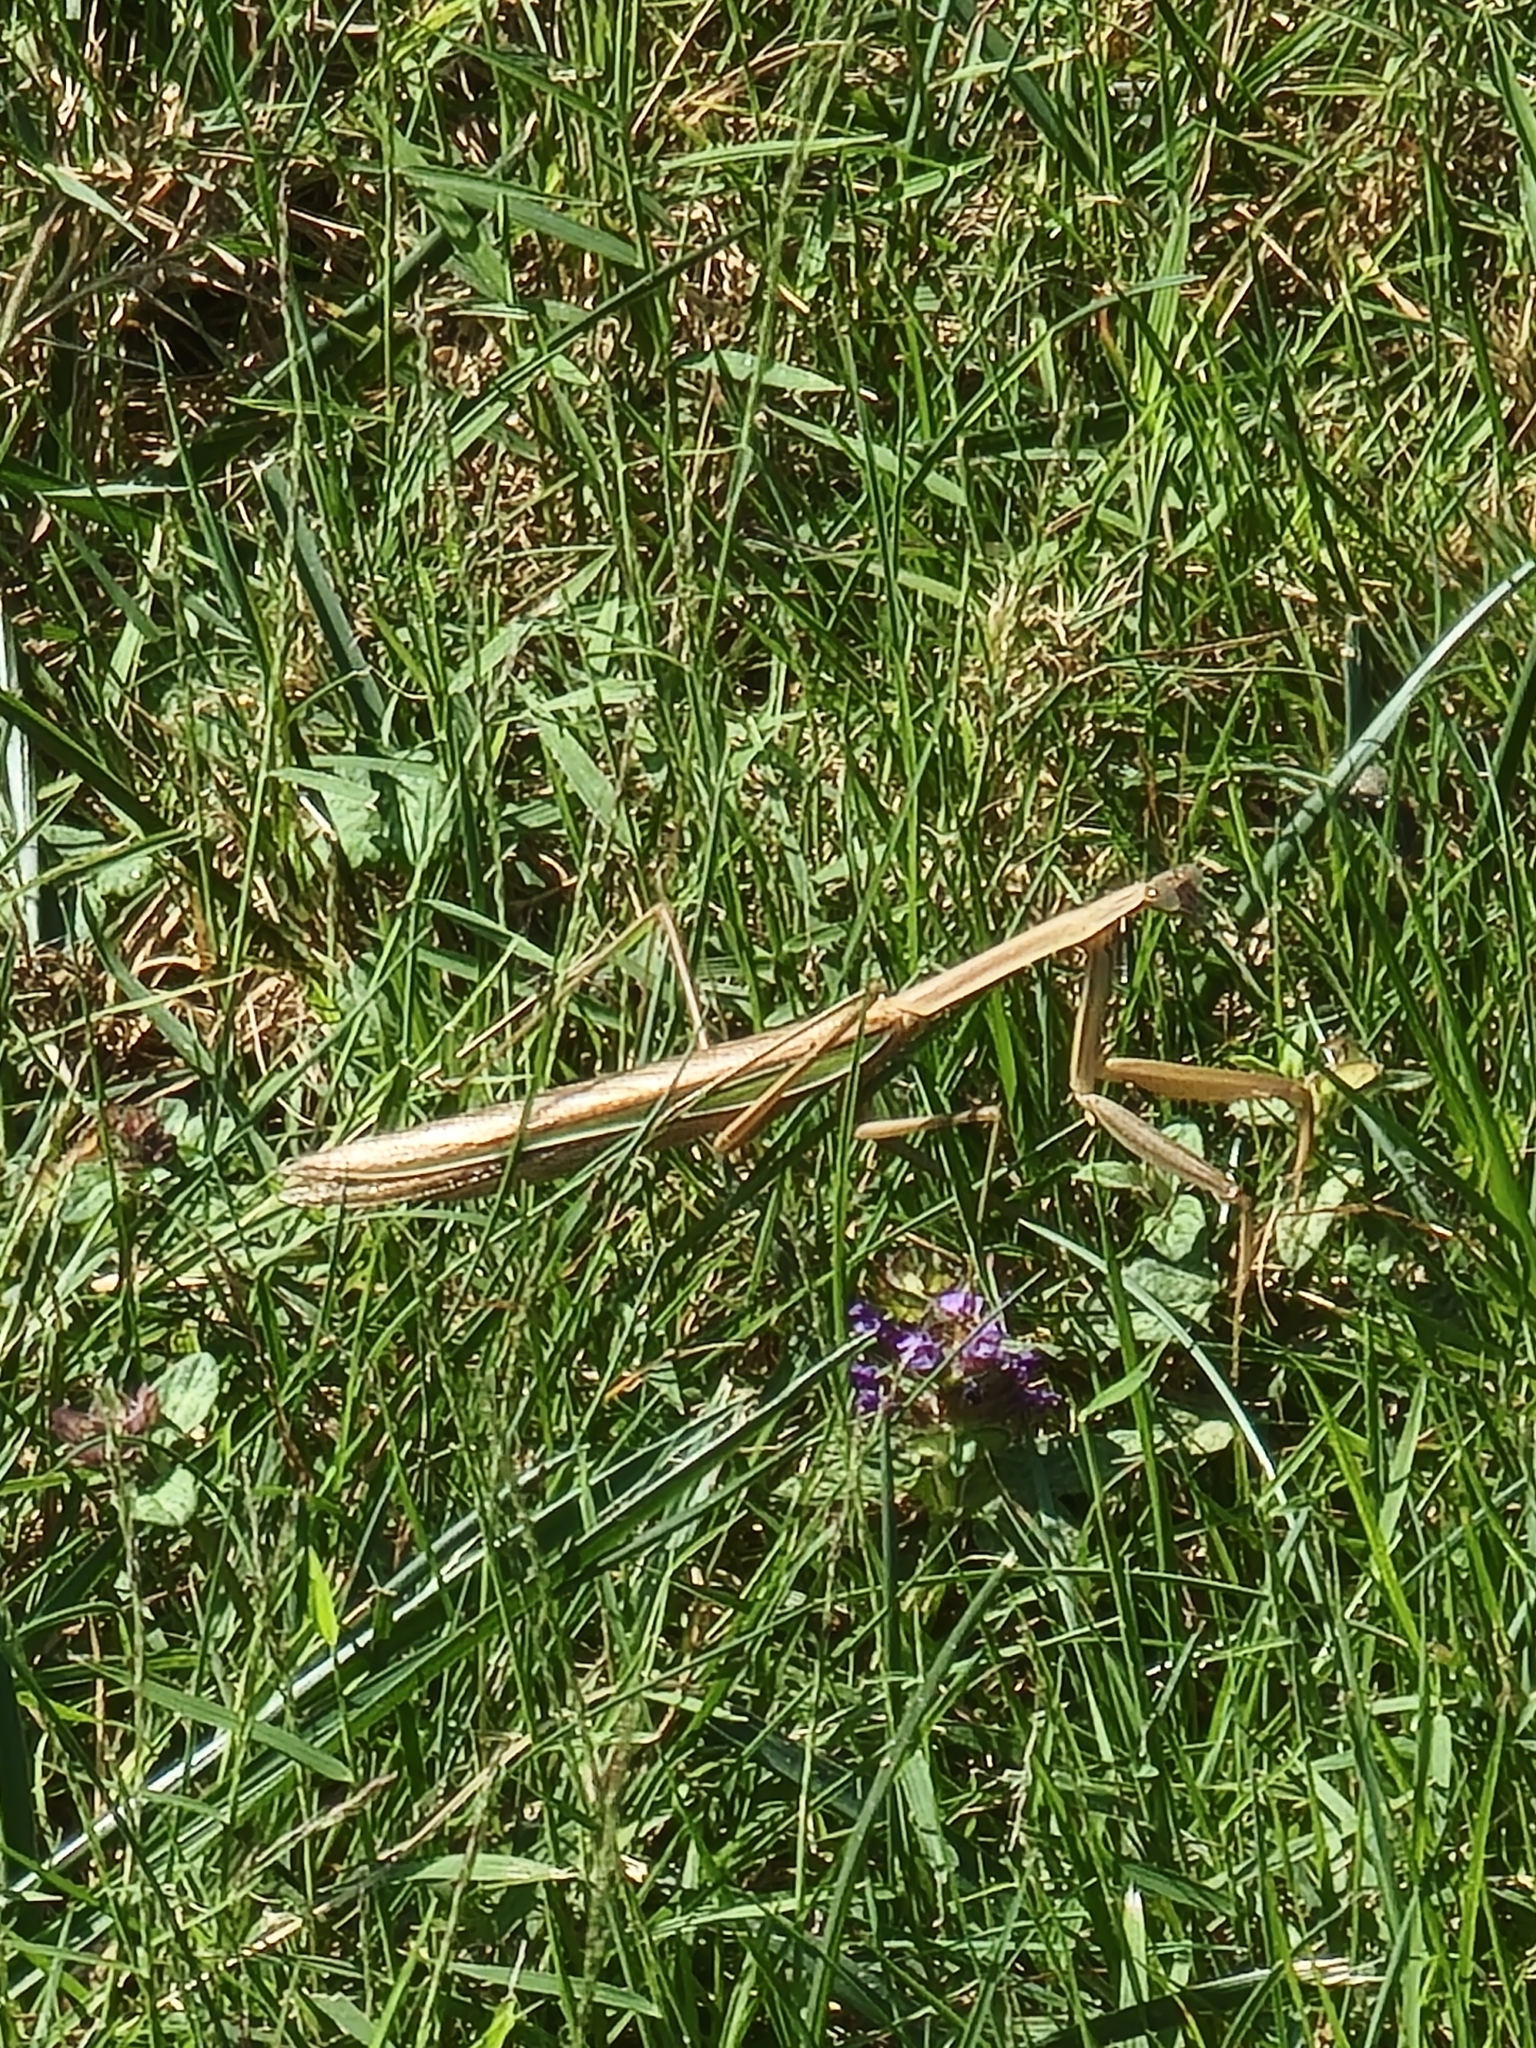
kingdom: Animalia
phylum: Arthropoda
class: Insecta
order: Mantodea
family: Mantidae
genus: Tenodera
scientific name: Tenodera sinensis
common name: Chinese mantis
